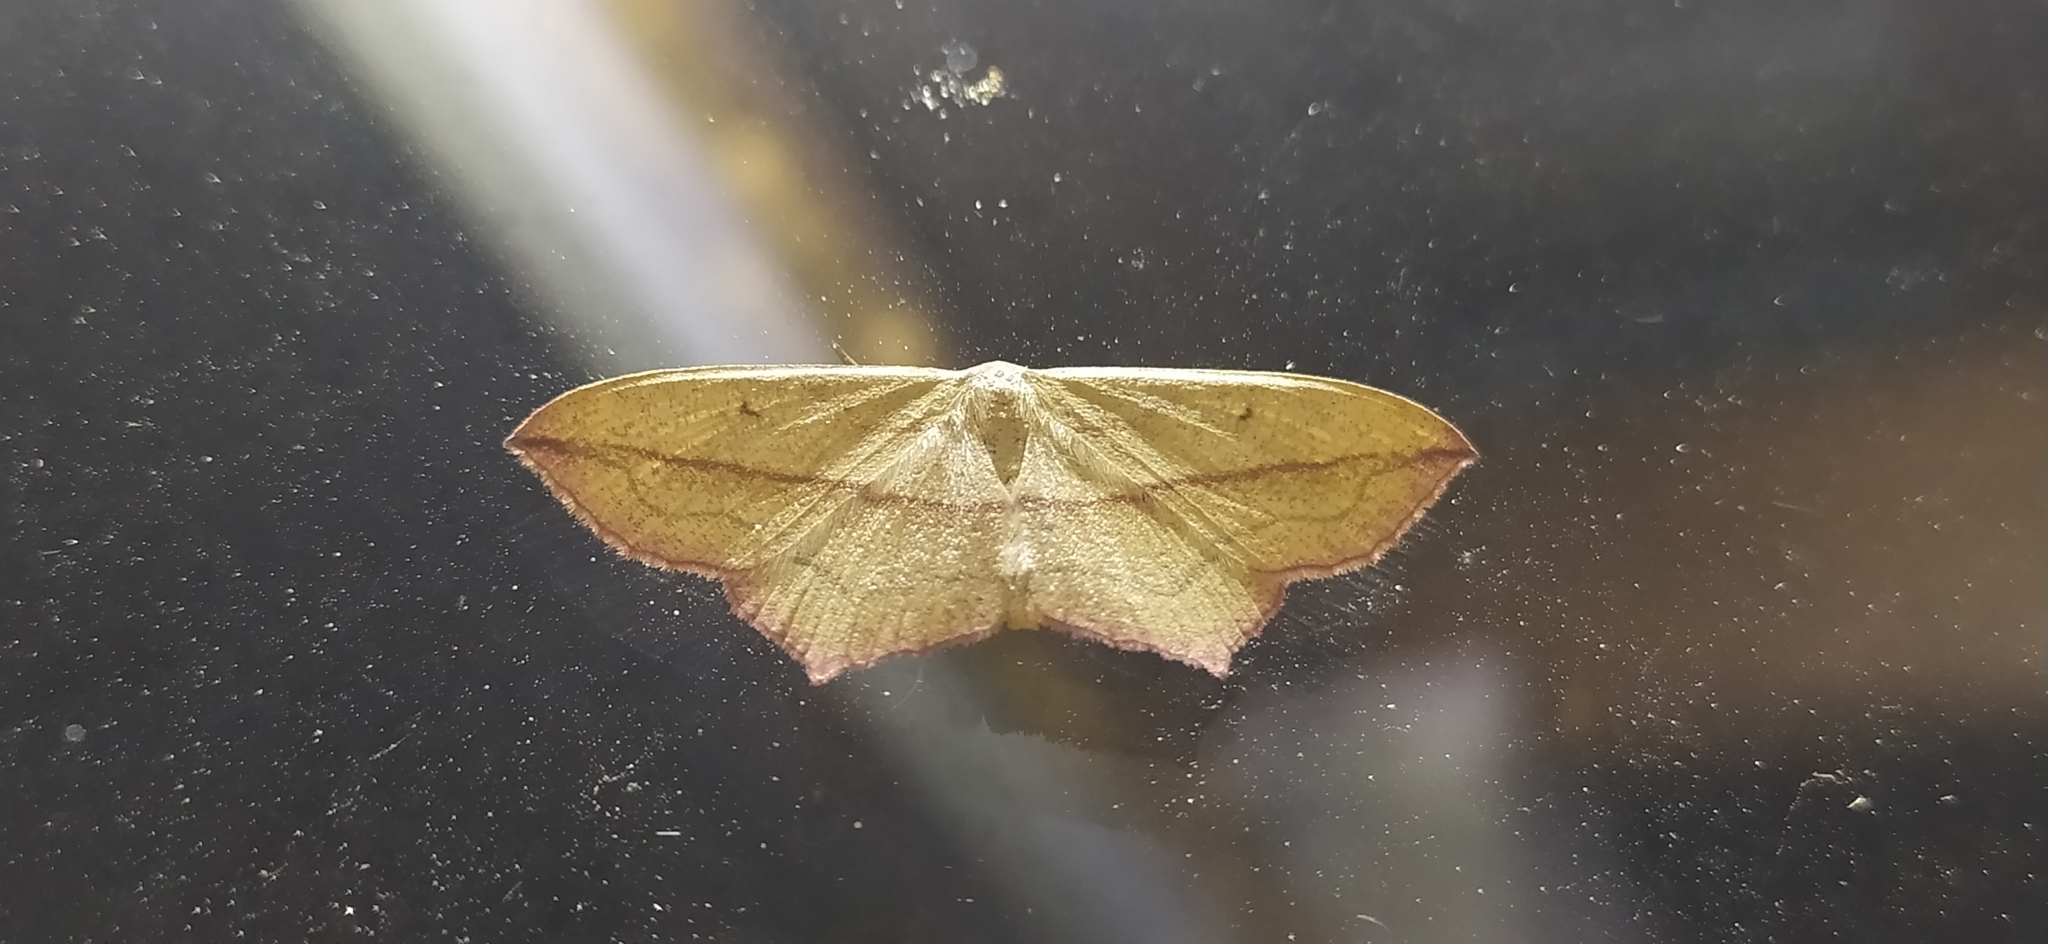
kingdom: Animalia
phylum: Arthropoda
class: Insecta
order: Lepidoptera
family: Geometridae
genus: Timandra
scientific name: Timandra comae
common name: Blood-vein
